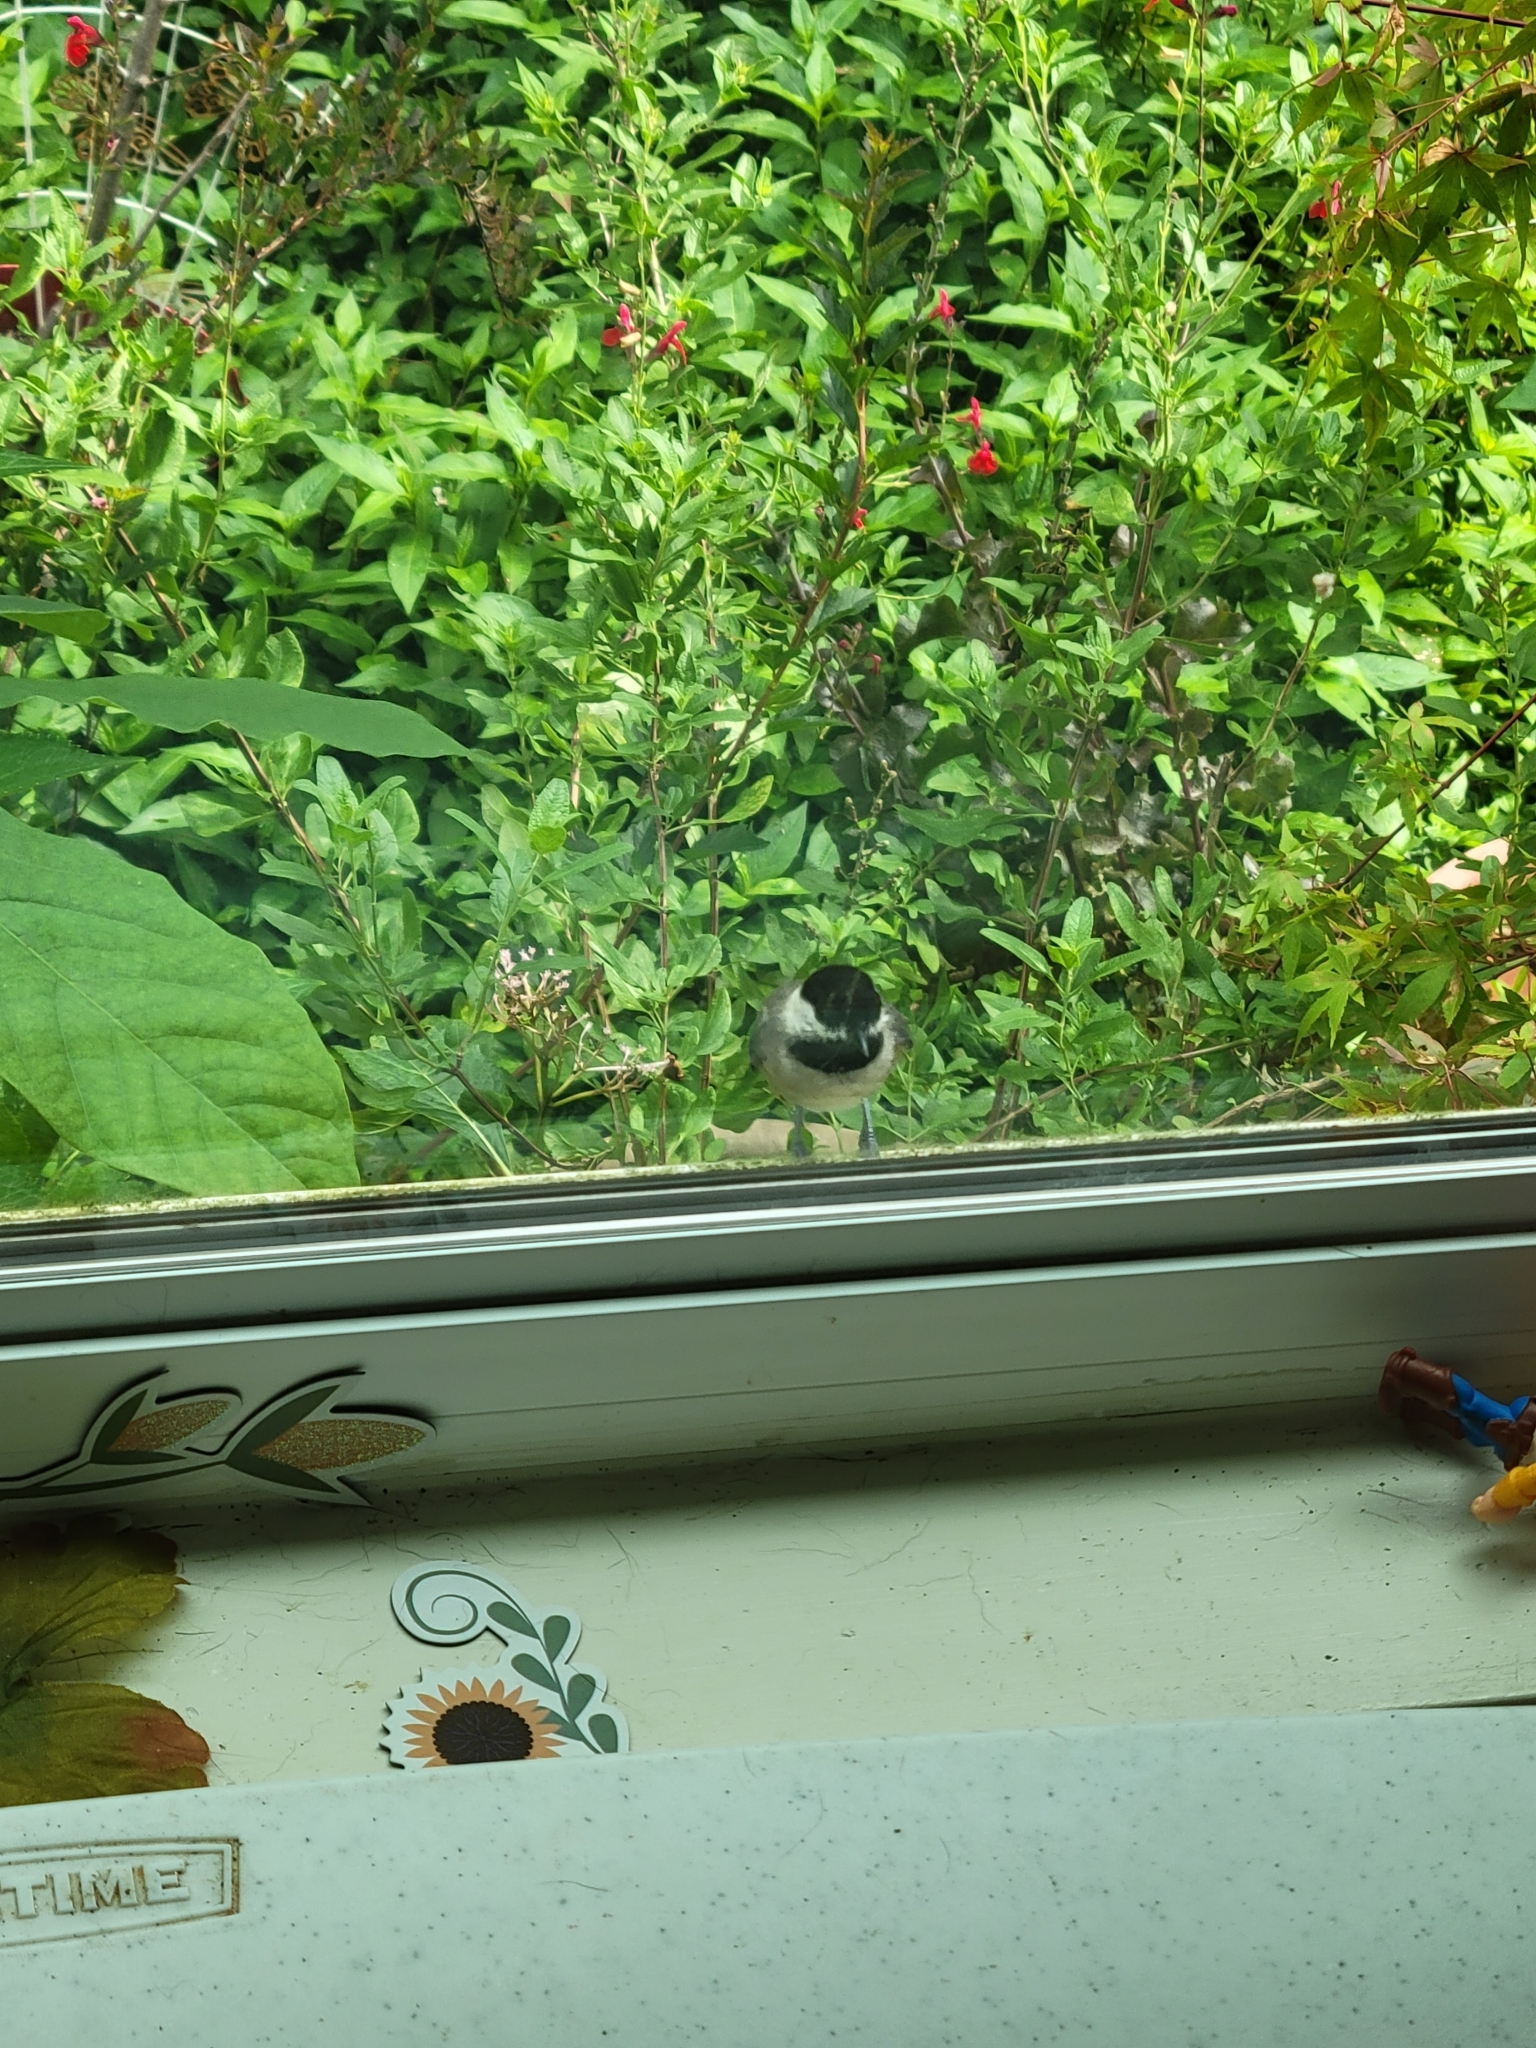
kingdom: Animalia
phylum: Chordata
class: Aves
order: Passeriformes
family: Paridae
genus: Poecile
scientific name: Poecile carolinensis
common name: Carolina chickadee
